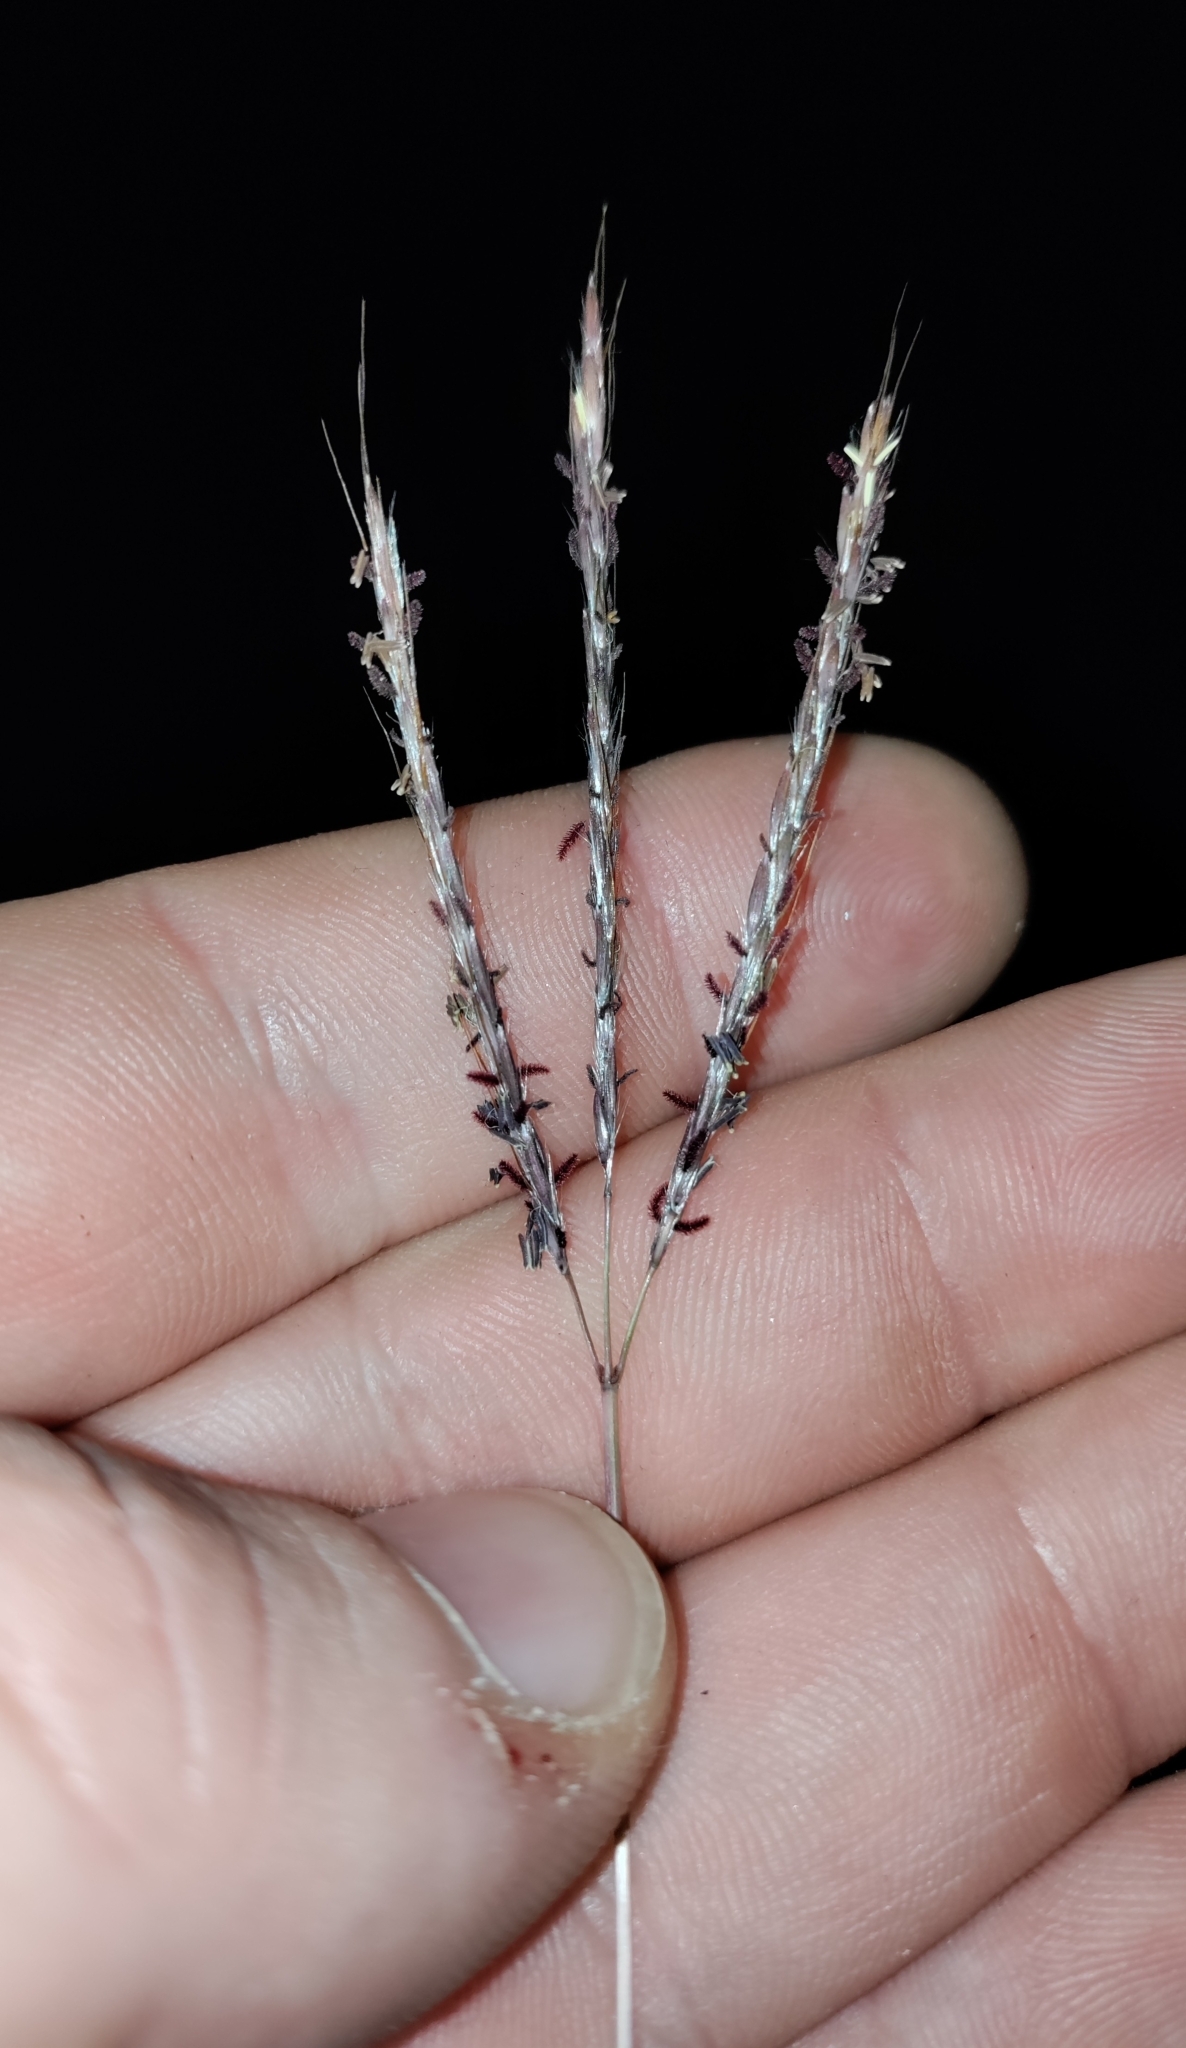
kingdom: Plantae
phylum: Tracheophyta
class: Liliopsida
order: Poales
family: Poaceae
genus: Bothriochloa
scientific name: Bothriochloa ischaemum
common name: Yellow bluestem
